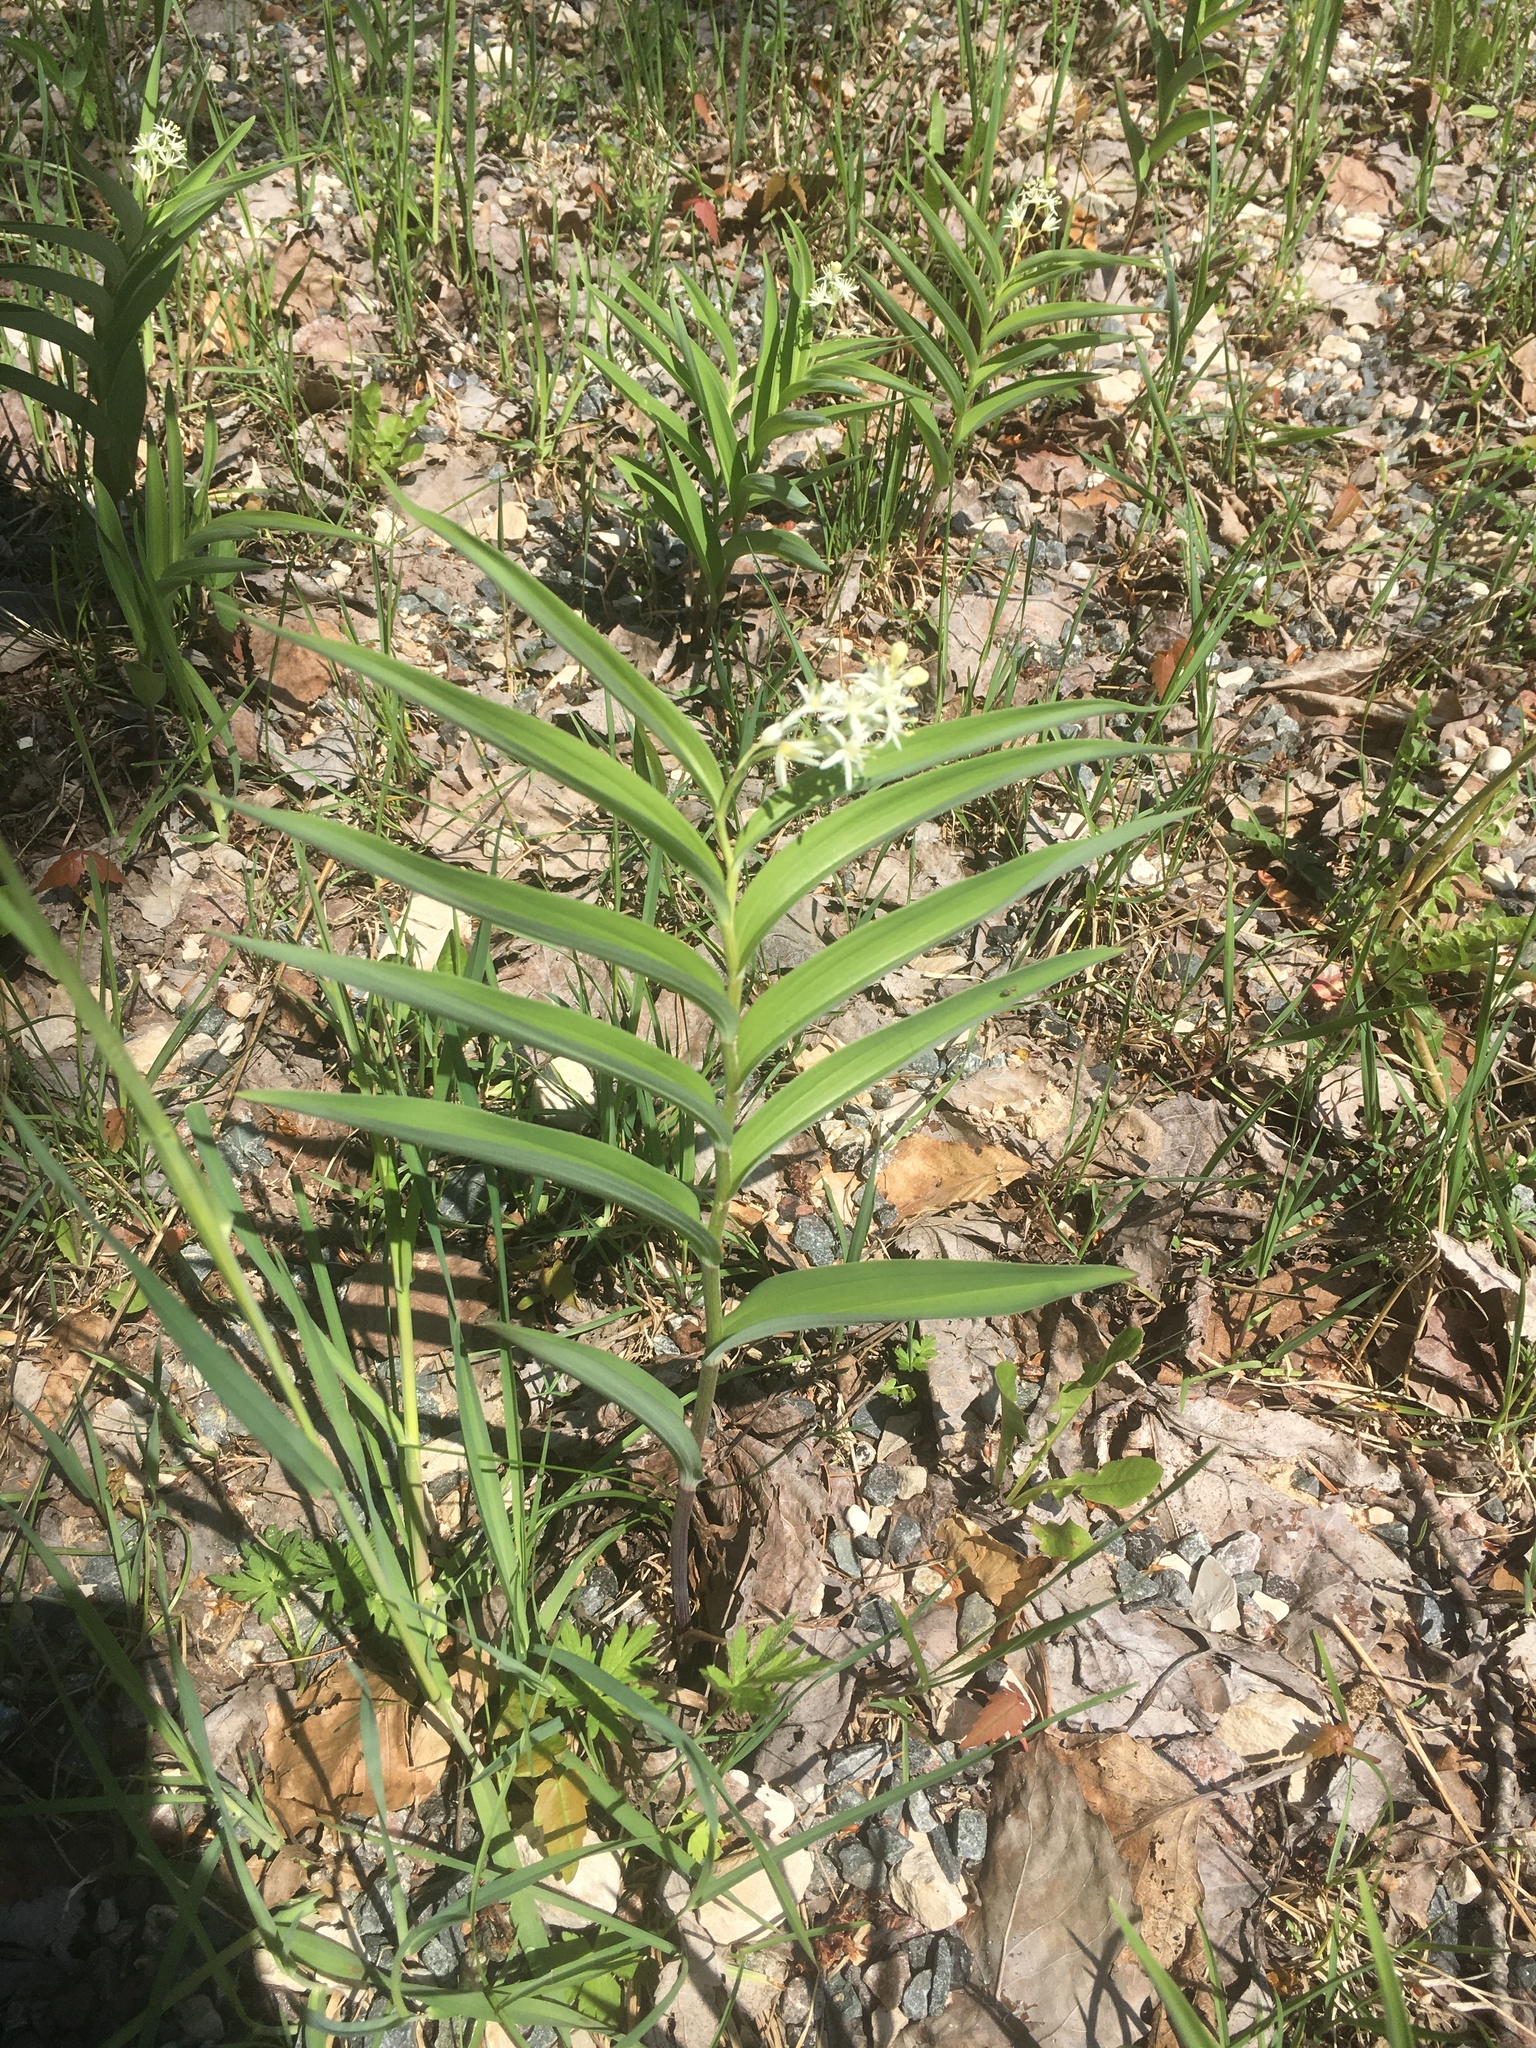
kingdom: Plantae
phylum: Tracheophyta
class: Liliopsida
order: Asparagales
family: Asparagaceae
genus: Maianthemum
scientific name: Maianthemum stellatum
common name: Little false solomon's seal
